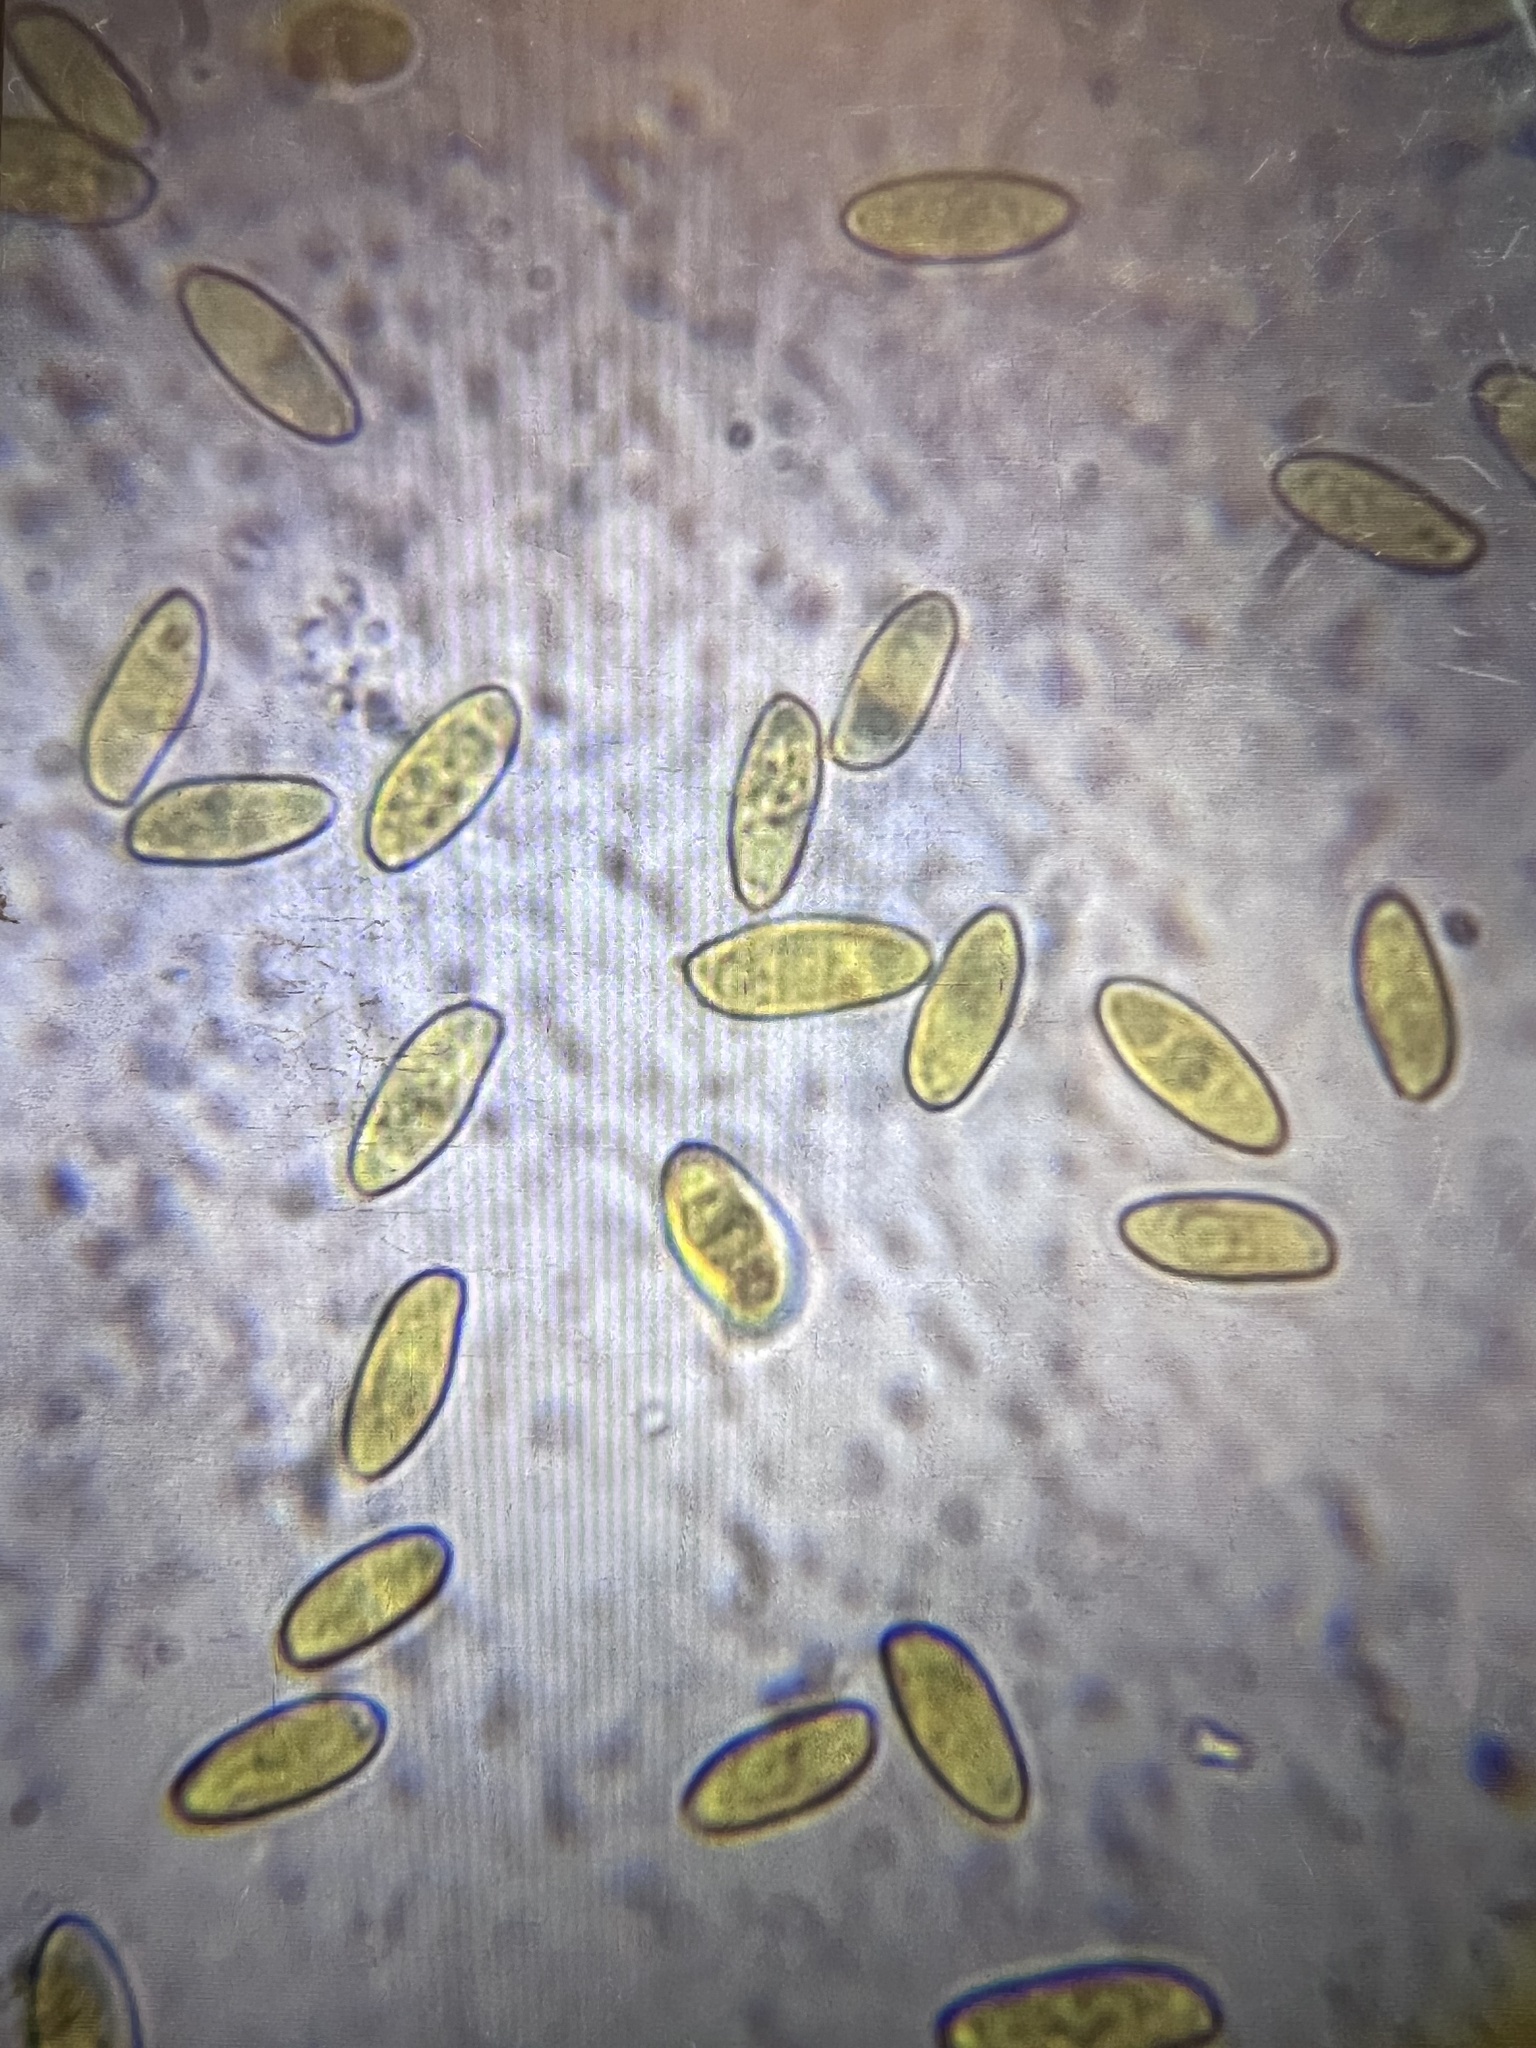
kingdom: Fungi
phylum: Basidiomycota
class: Agaricomycetes
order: Boletales
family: Boletaceae
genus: Pulveroboletus
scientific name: Pulveroboletus curtisii
